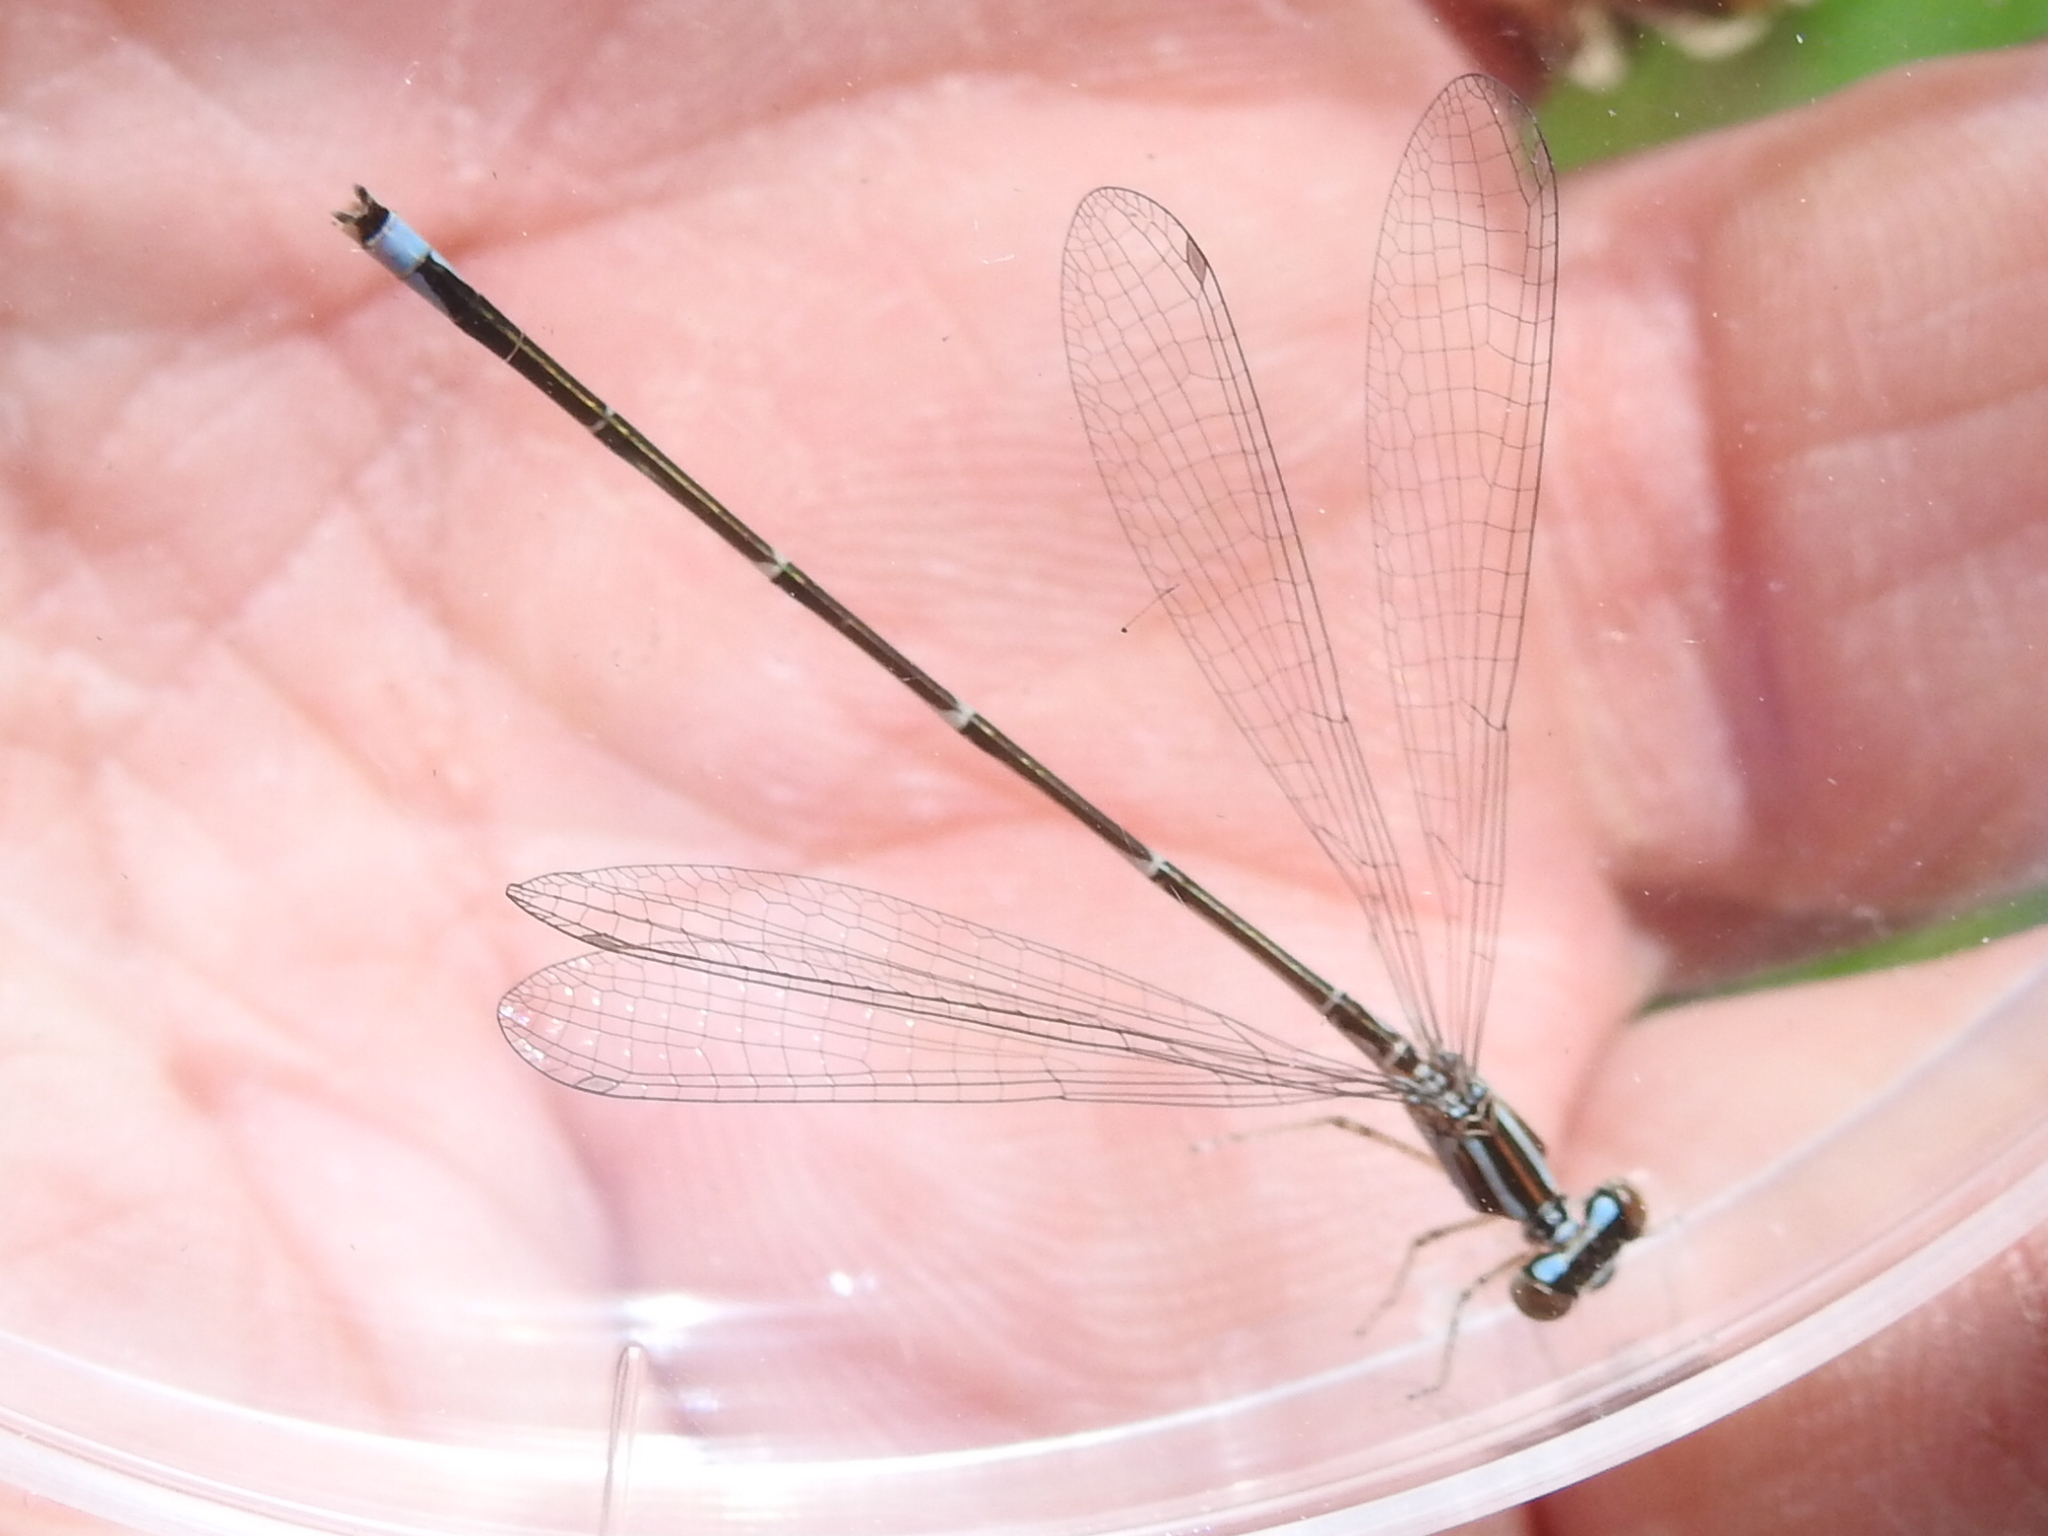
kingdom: Animalia
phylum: Arthropoda
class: Insecta
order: Odonata
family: Coenagrionidae
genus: Enallagma
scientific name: Enallagma exsulans
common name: Stream bluet
